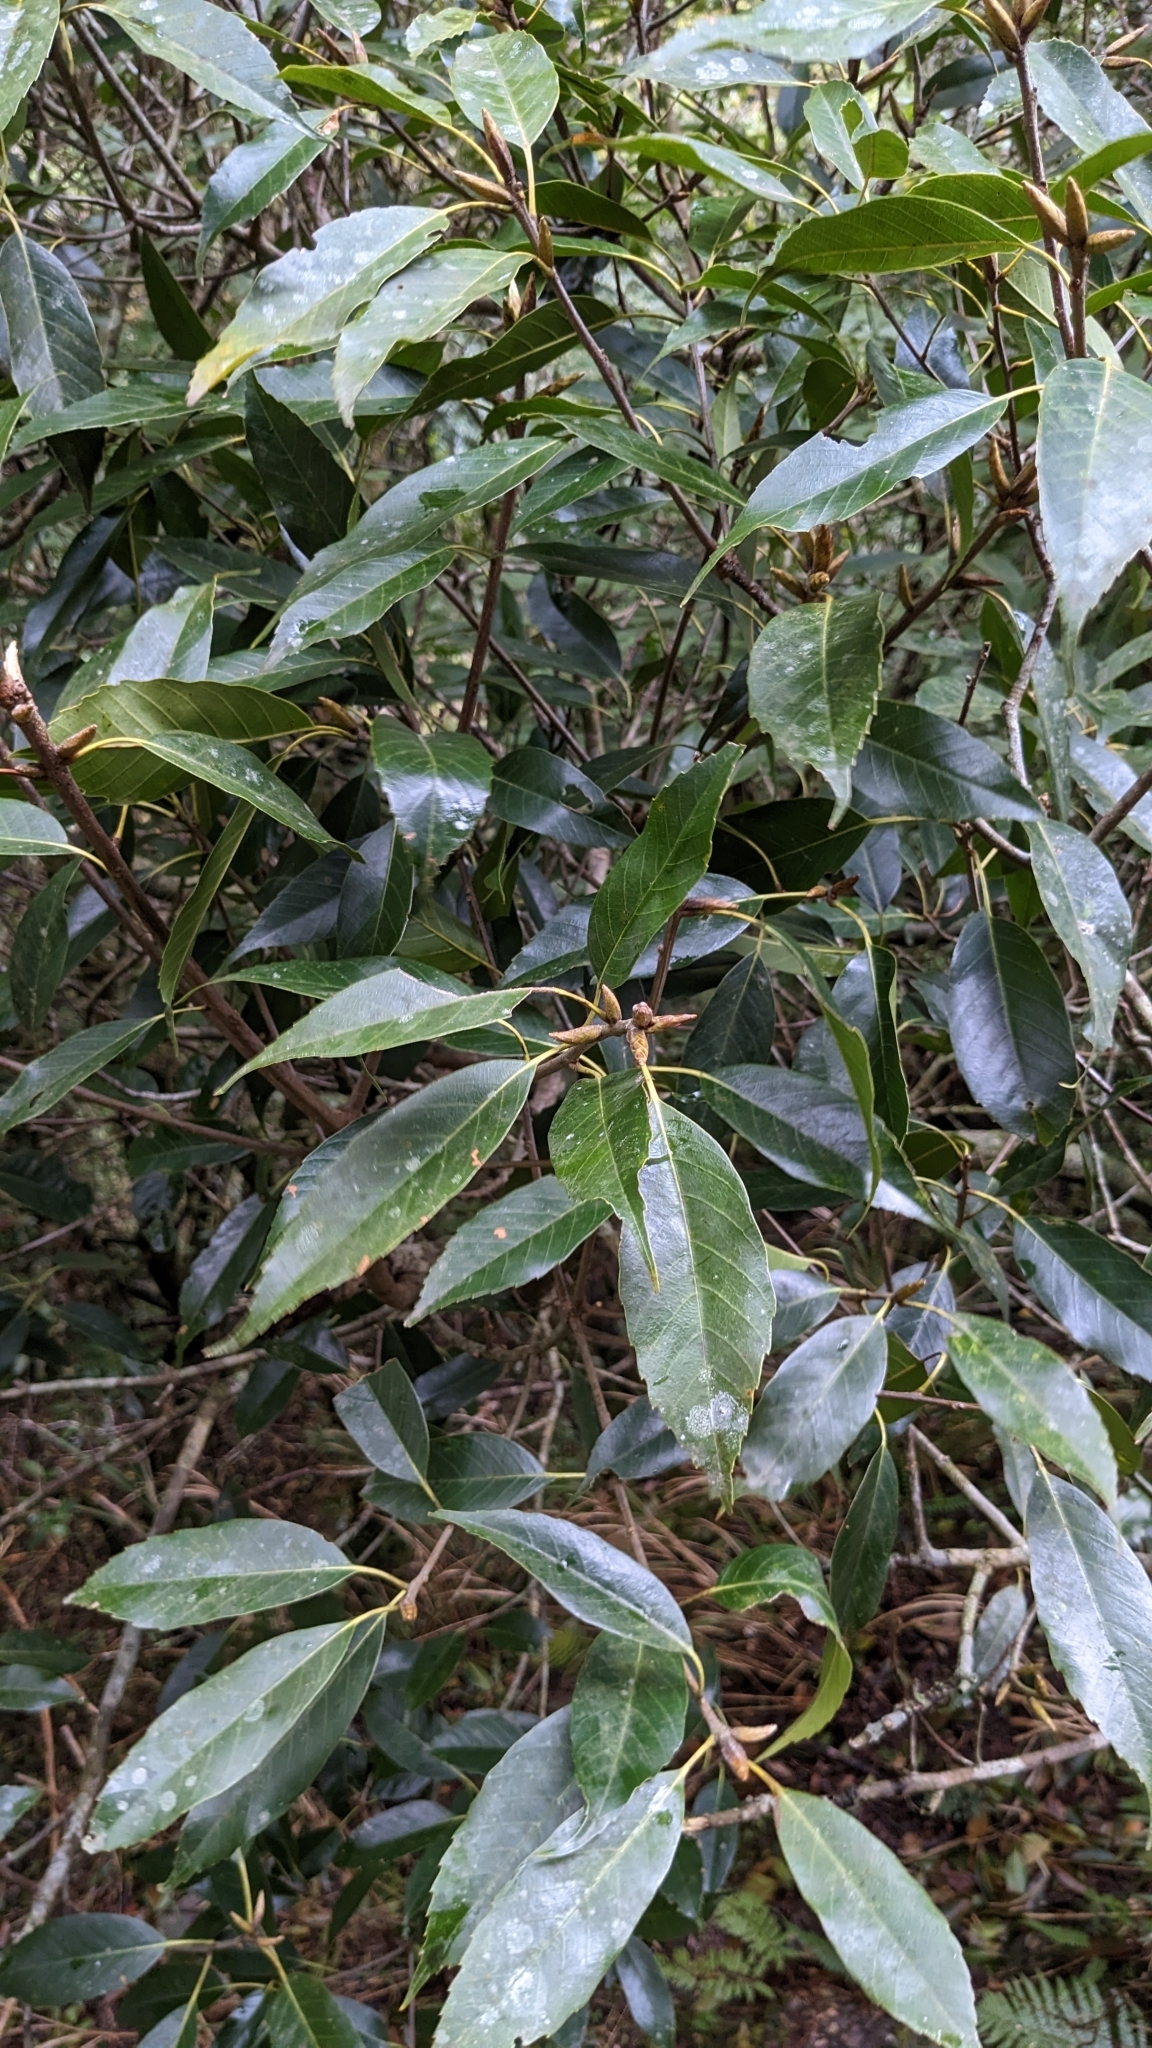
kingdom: Plantae
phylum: Tracheophyta
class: Magnoliopsida
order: Fagales
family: Fagaceae
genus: Quercus
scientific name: Quercus morii
